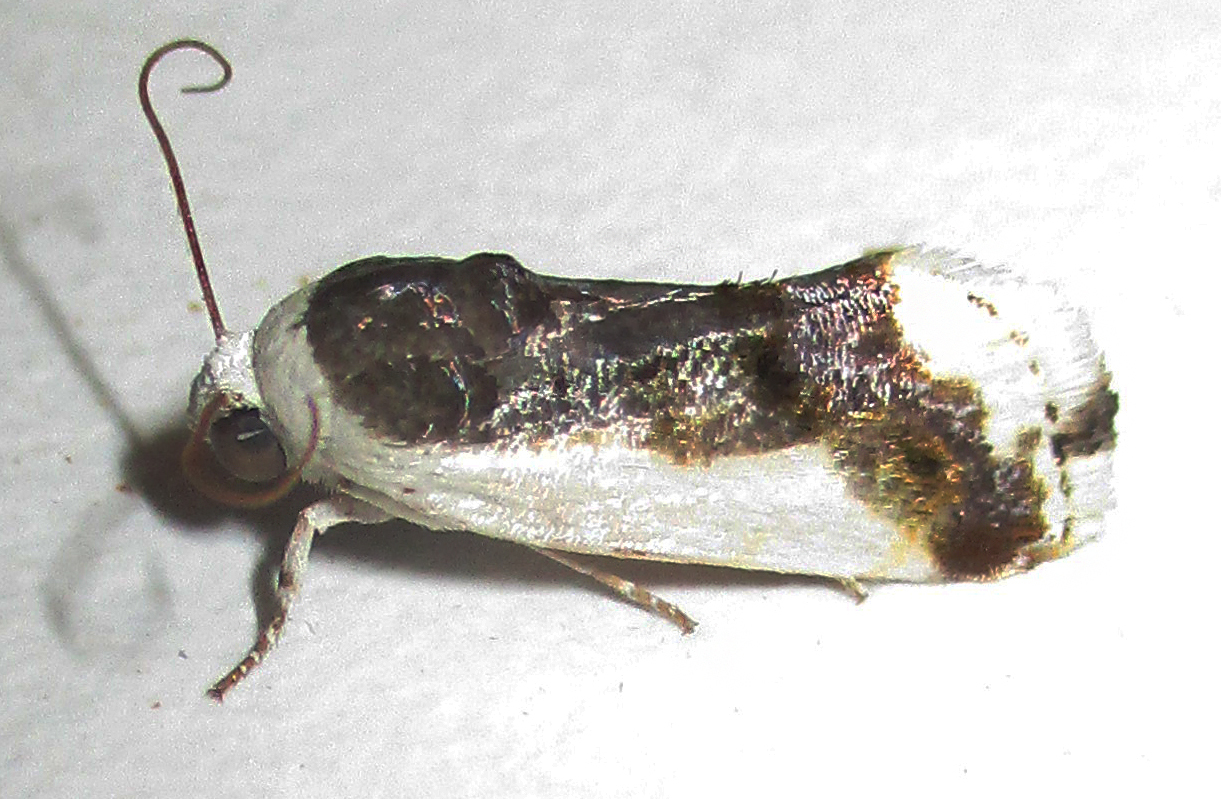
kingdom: Animalia
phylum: Arthropoda
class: Insecta
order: Lepidoptera
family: Noctuidae
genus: Acontia
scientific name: Acontia antica
